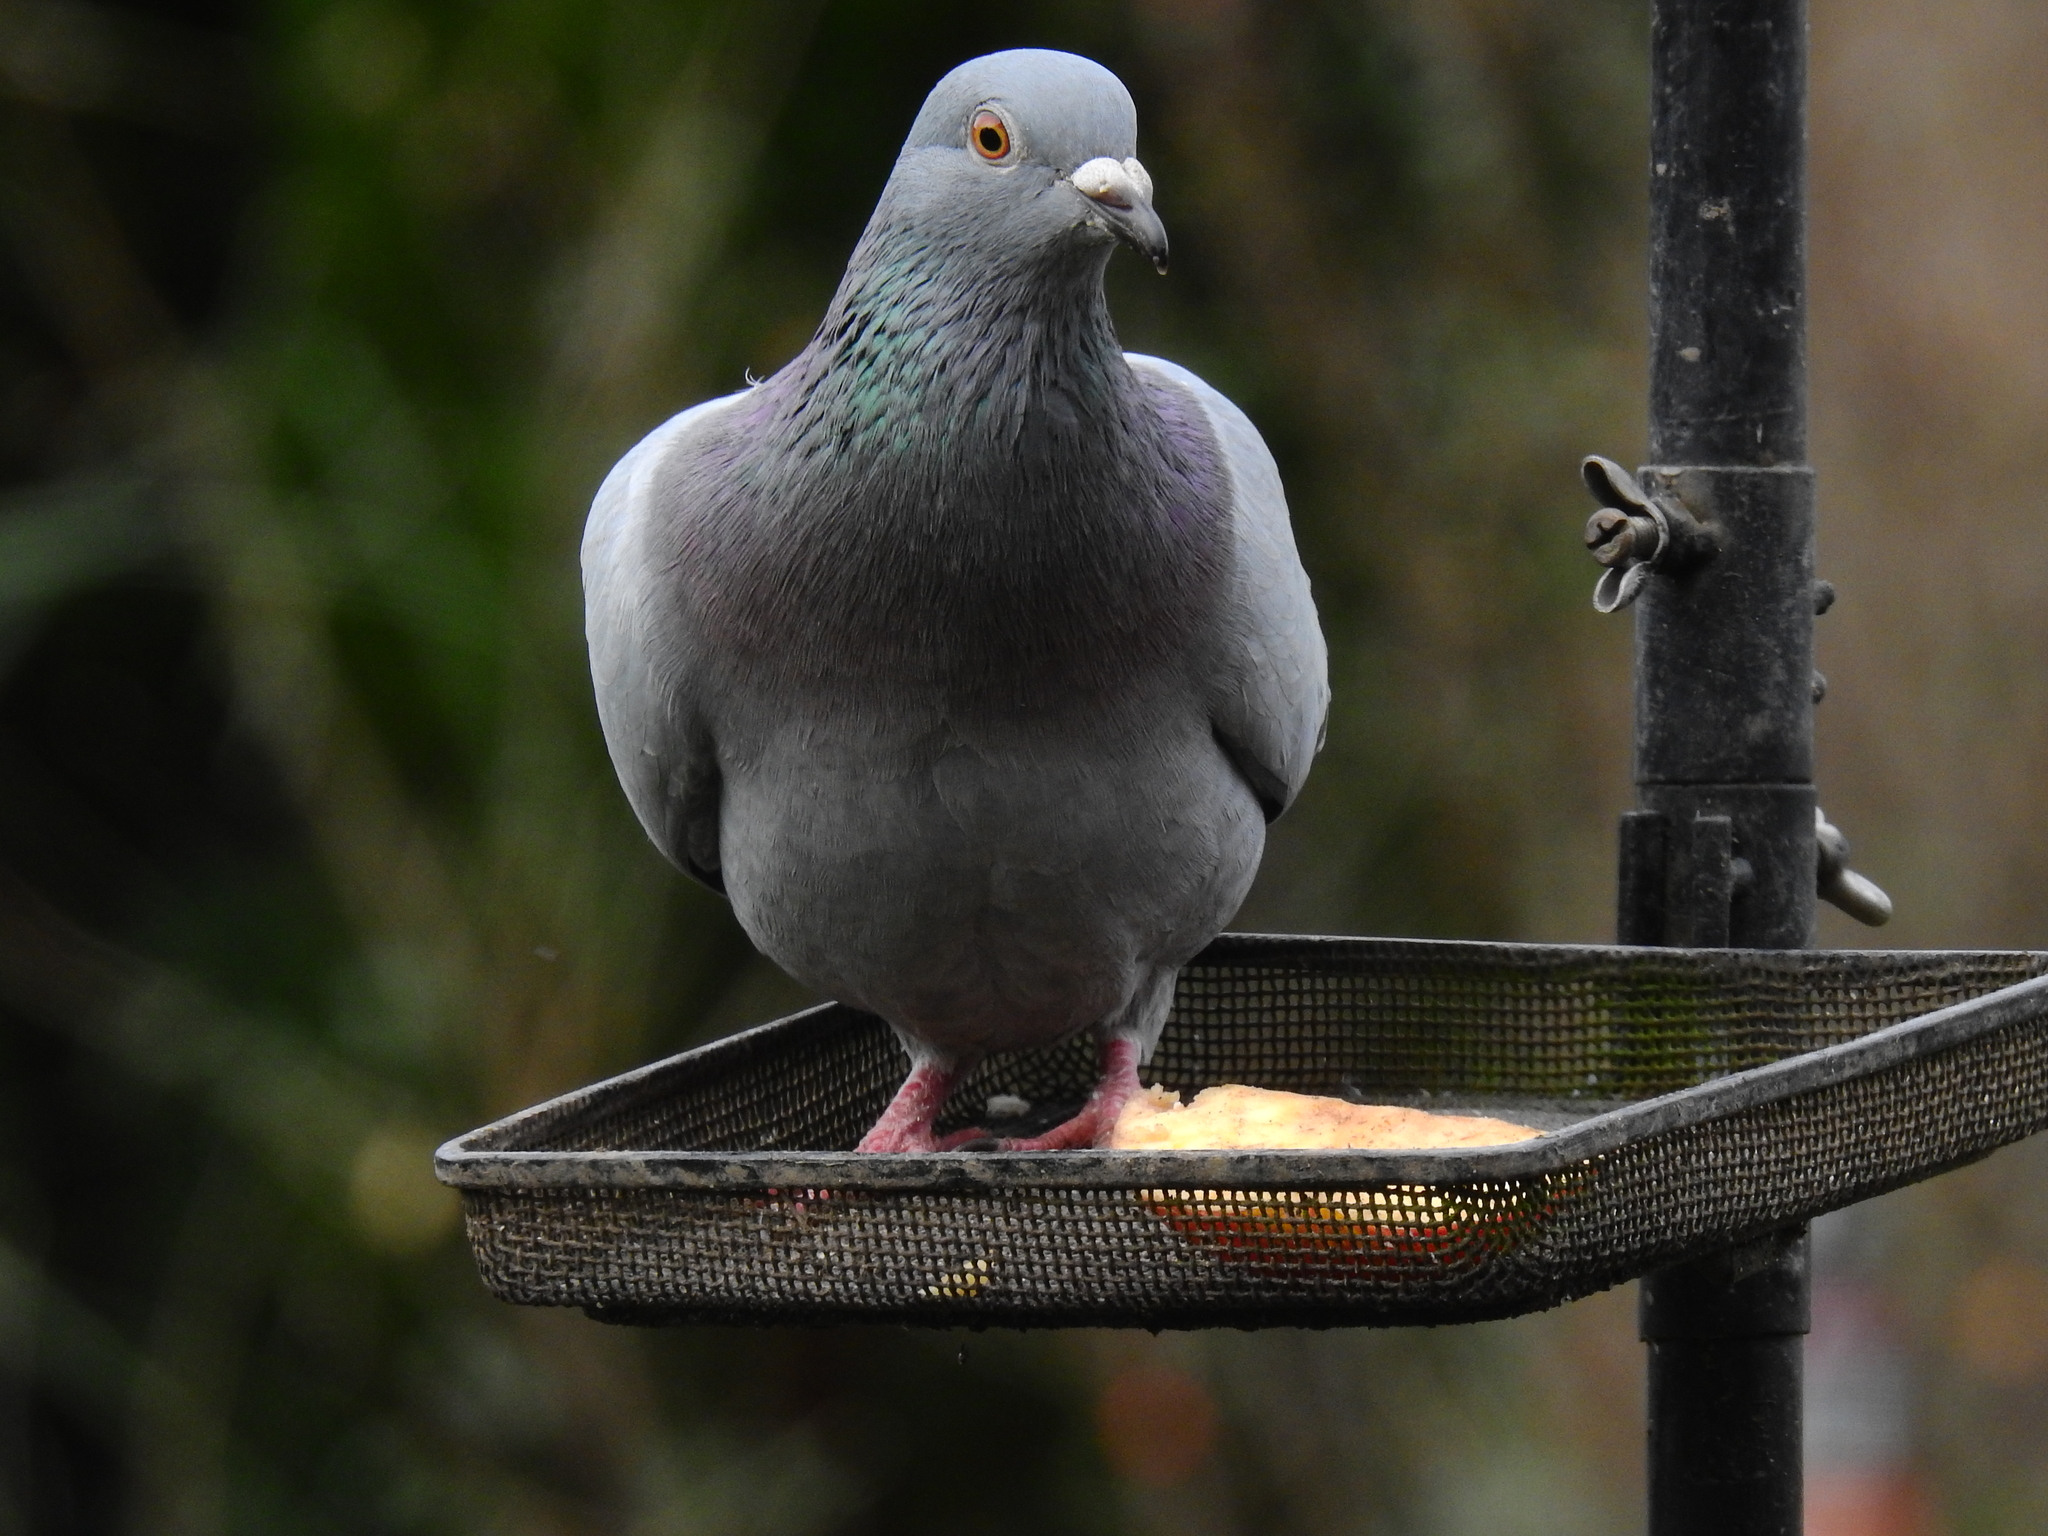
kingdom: Animalia
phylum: Chordata
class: Aves
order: Columbiformes
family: Columbidae
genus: Columba
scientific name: Columba livia
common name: Rock pigeon
